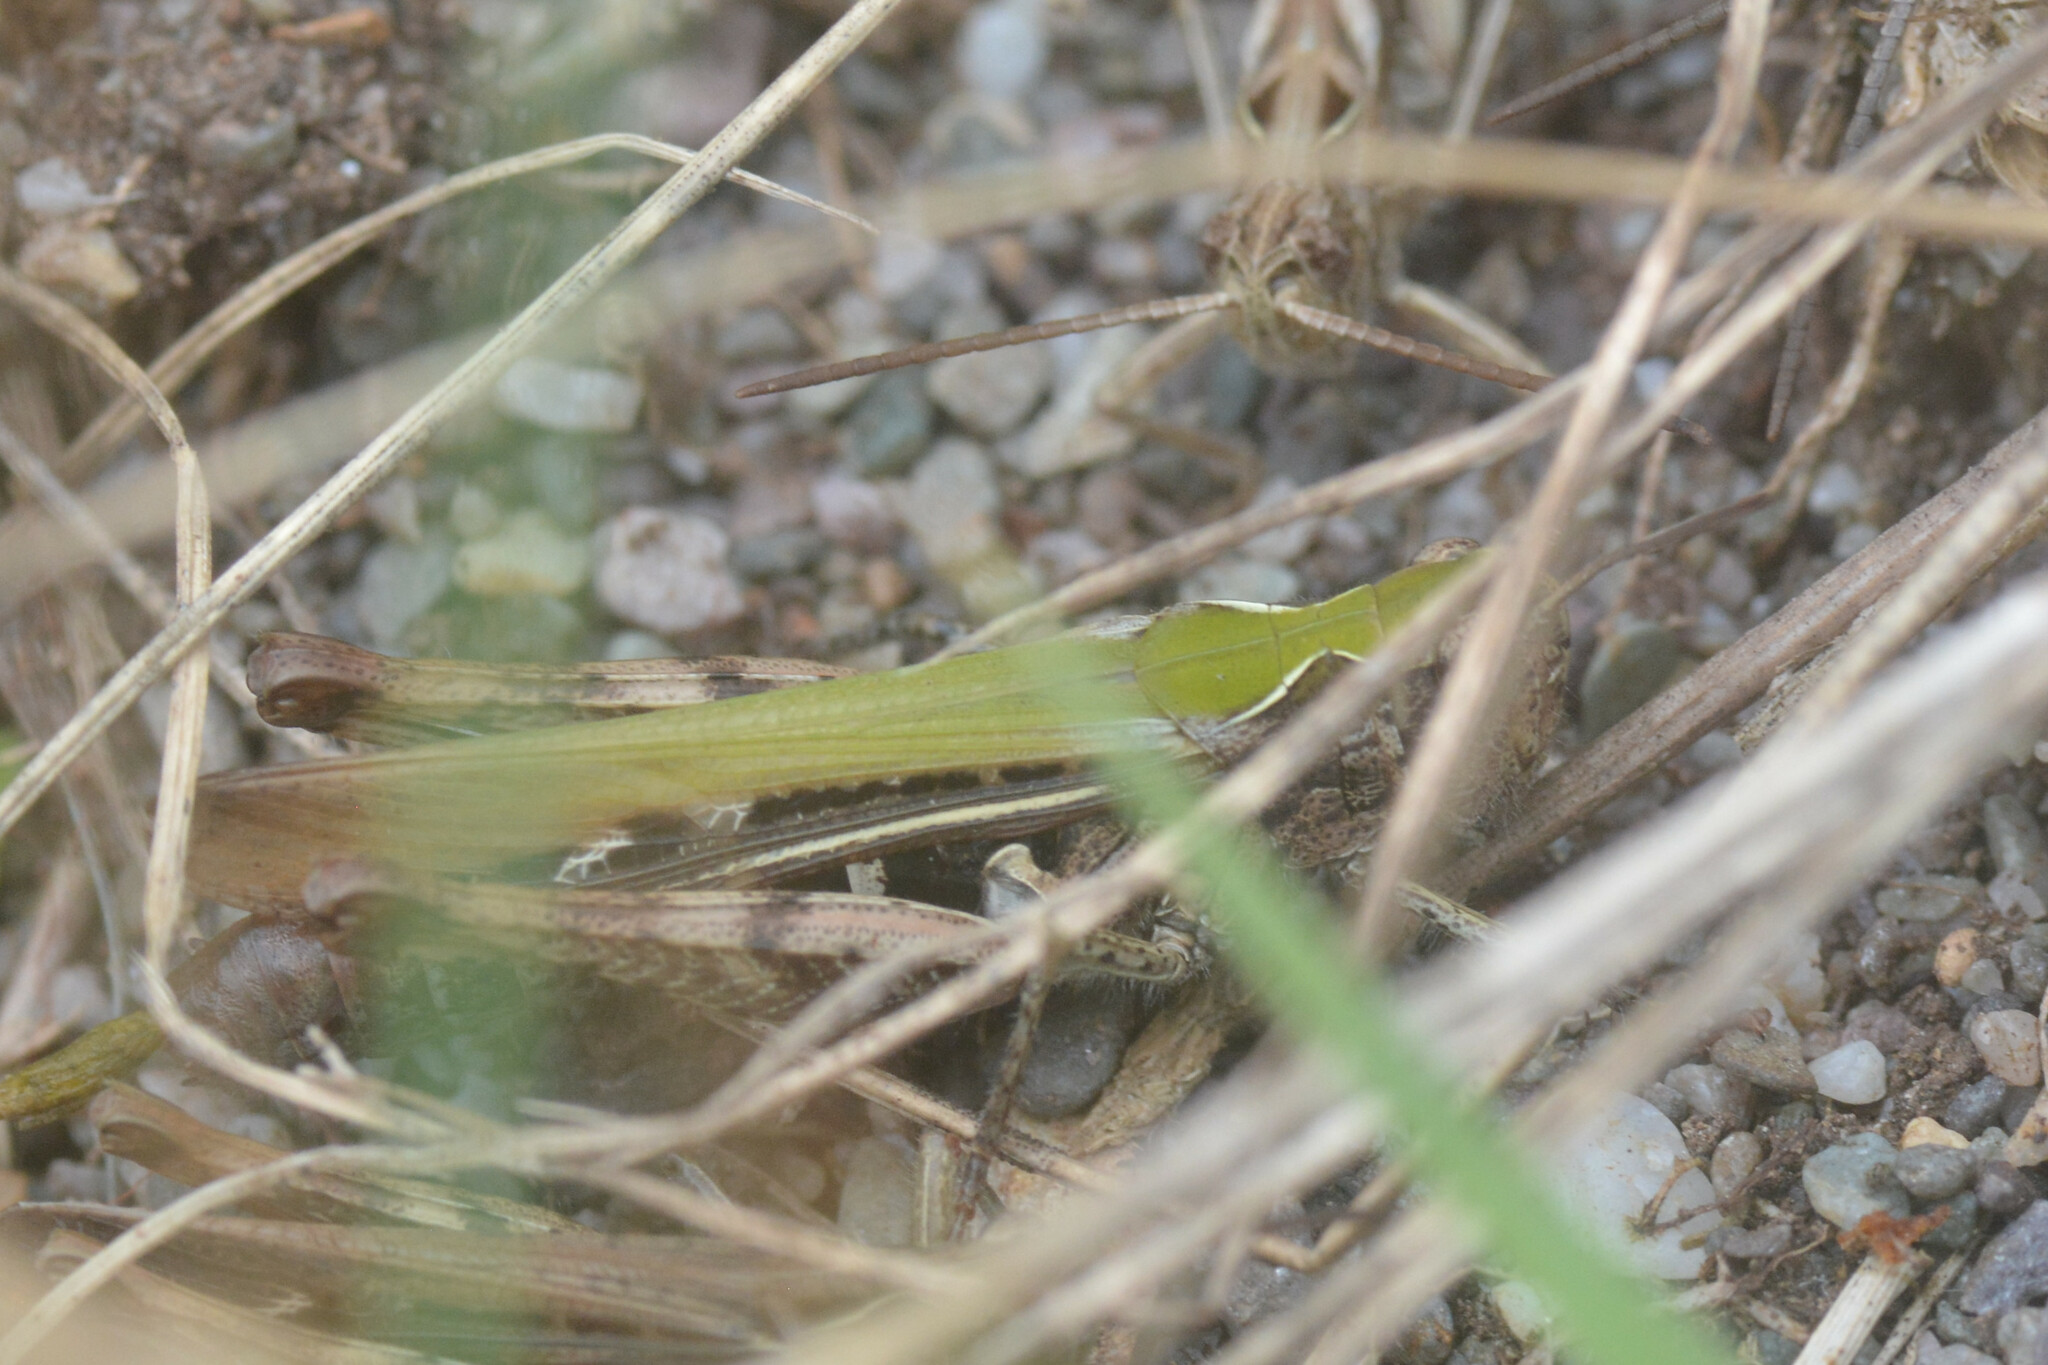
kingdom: Animalia
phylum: Arthropoda
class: Insecta
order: Orthoptera
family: Acrididae
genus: Chorthippus
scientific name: Chorthippus brunneus
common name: Field grasshopper
